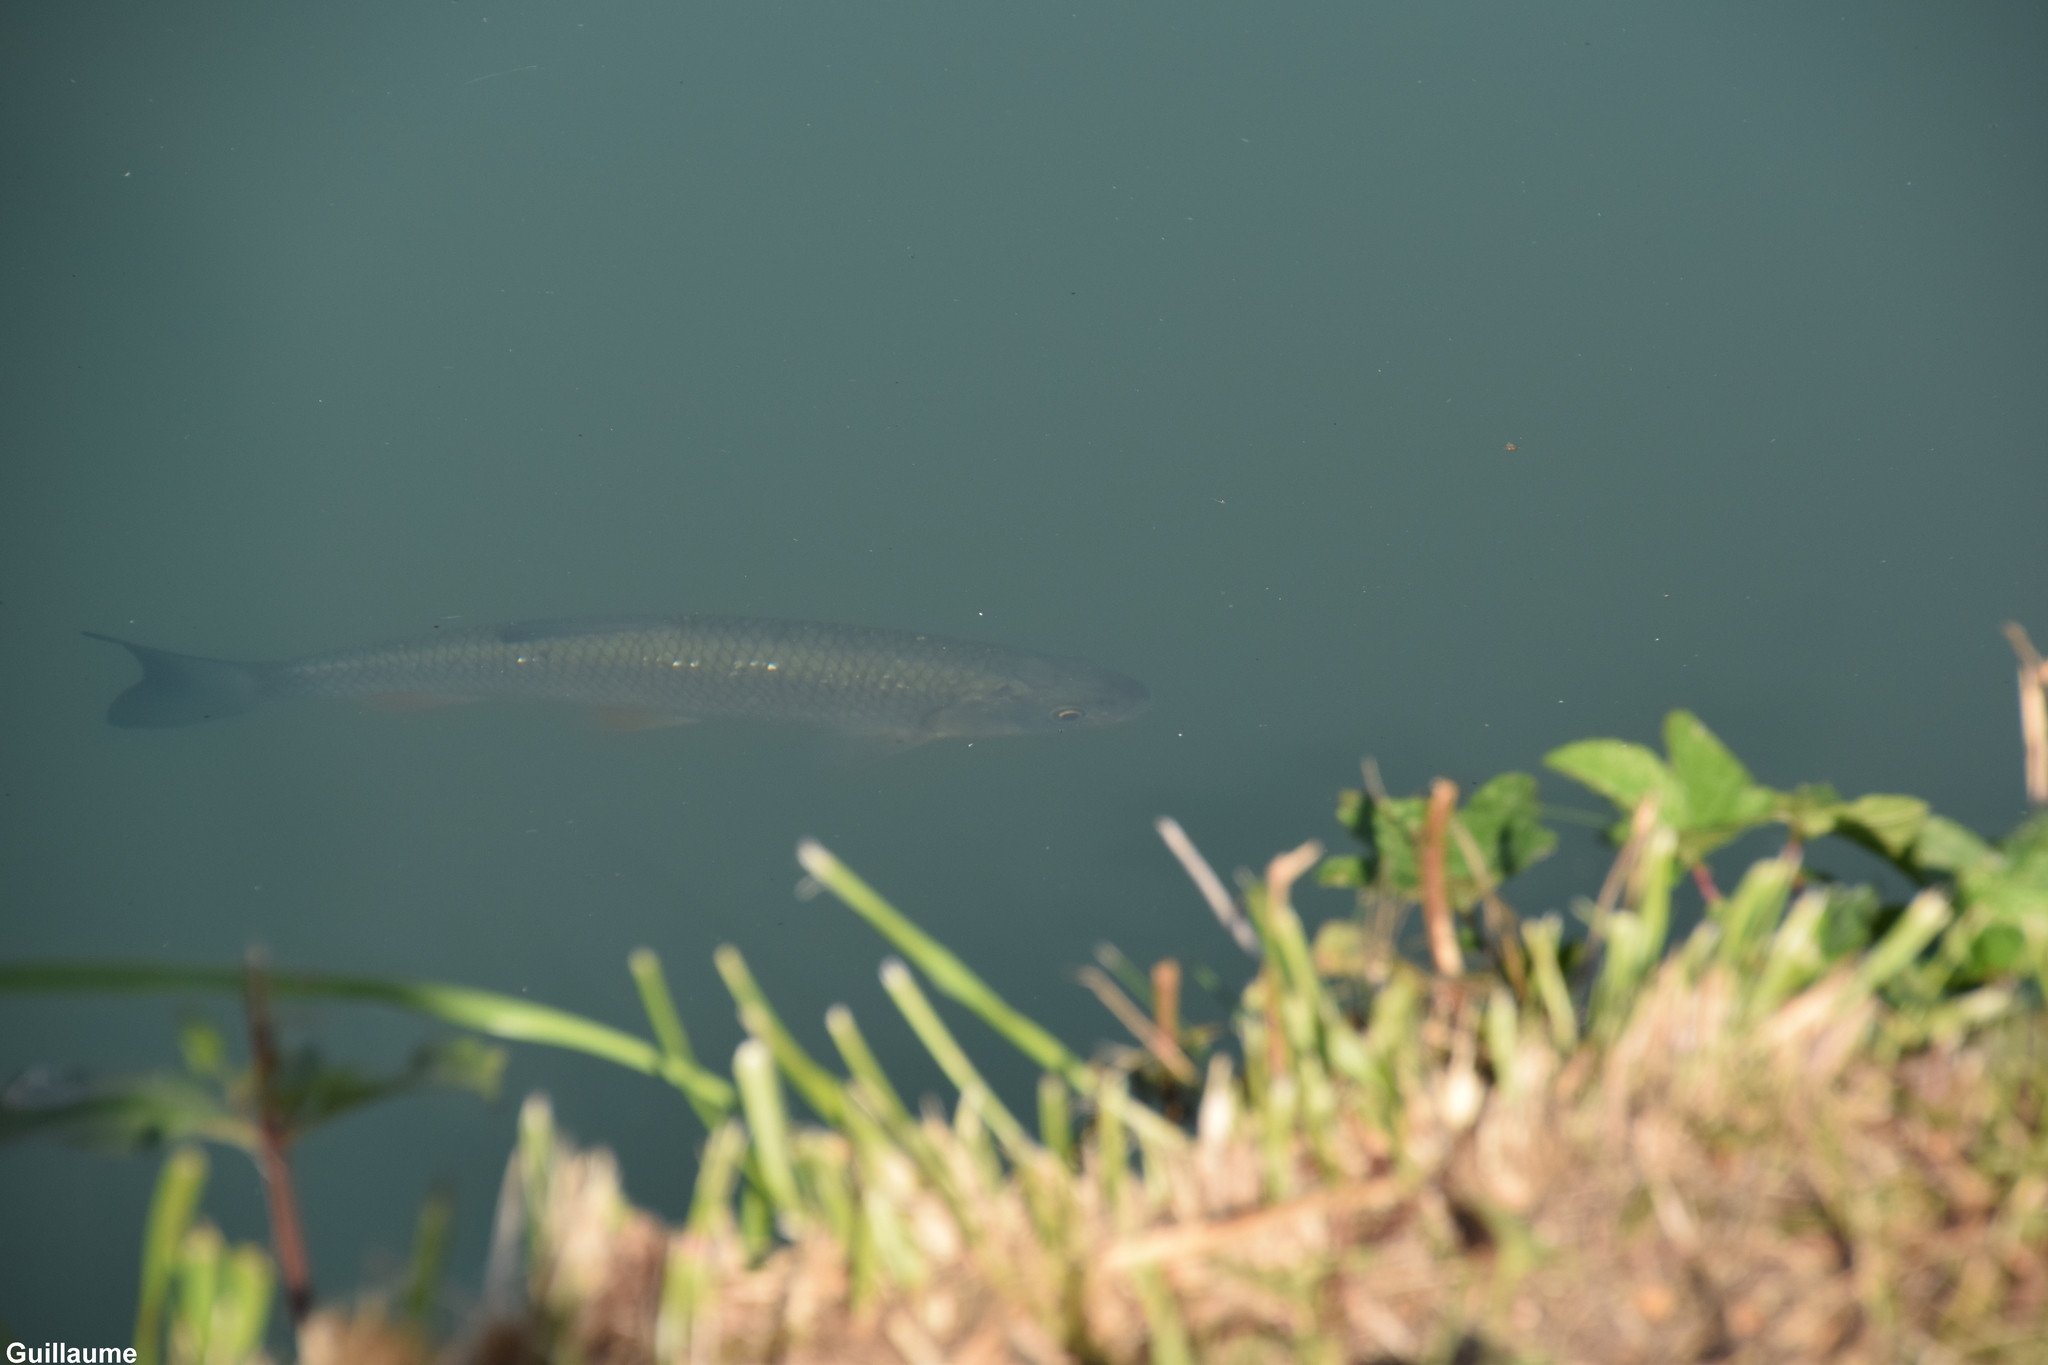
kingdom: Animalia
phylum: Chordata
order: Cypriniformes
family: Cyprinidae
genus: Squalius
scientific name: Squalius cephalus
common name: Chub
